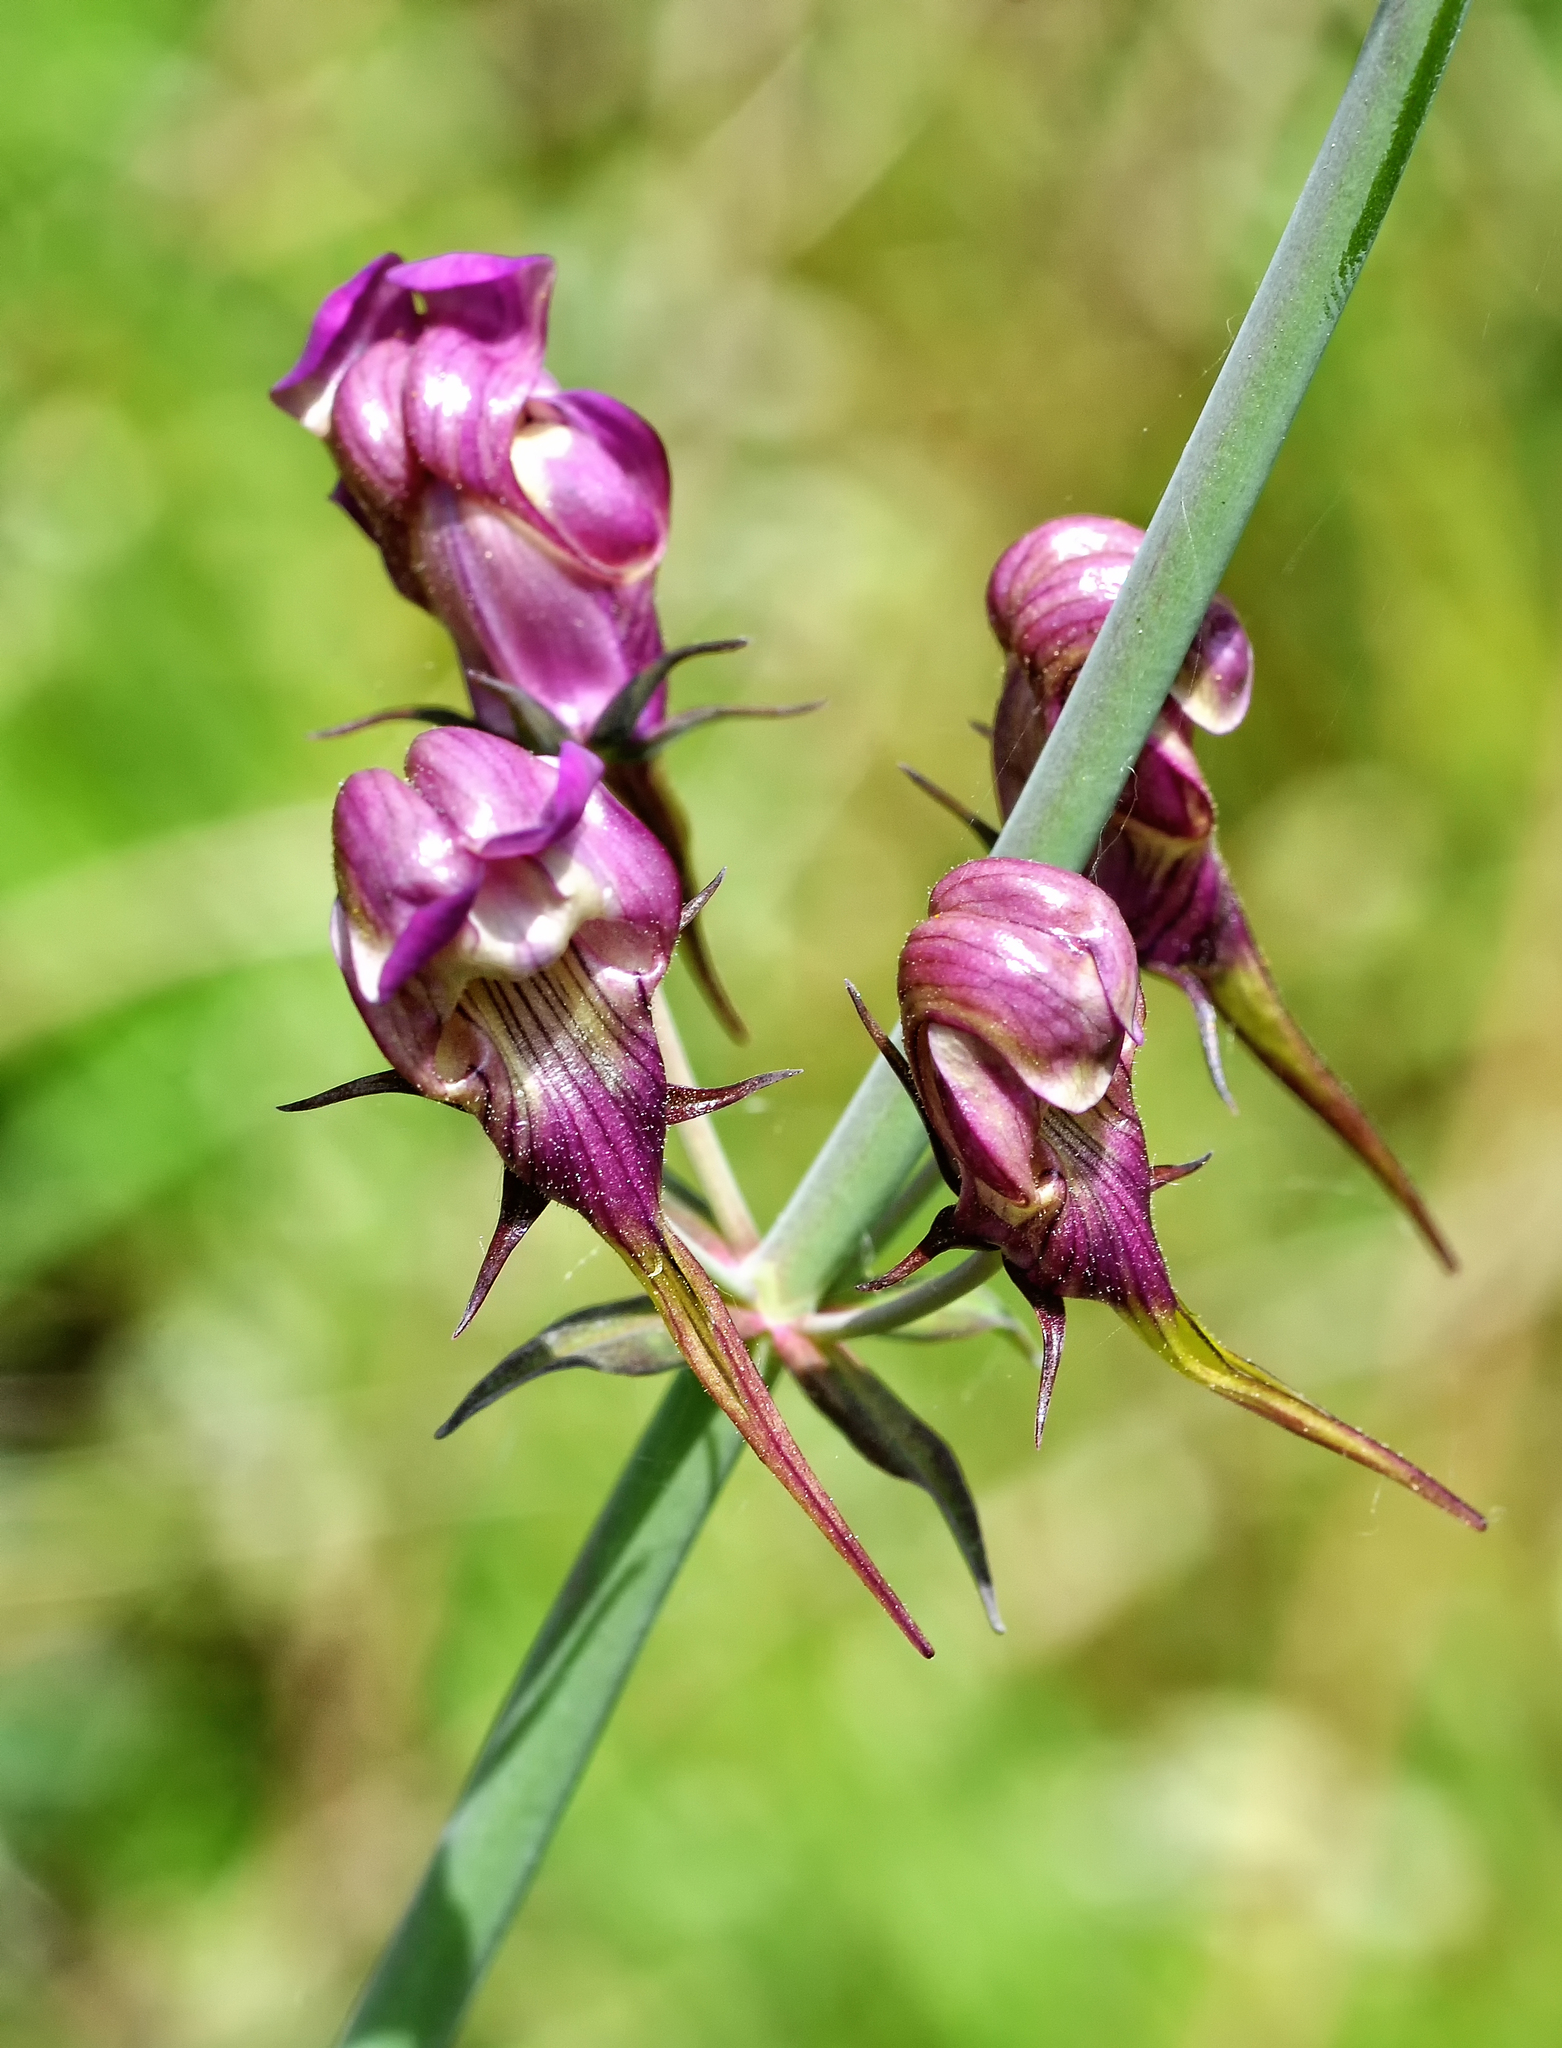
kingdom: Plantae
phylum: Tracheophyta
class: Magnoliopsida
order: Lamiales
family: Plantaginaceae
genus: Linaria
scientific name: Linaria triornithophora
